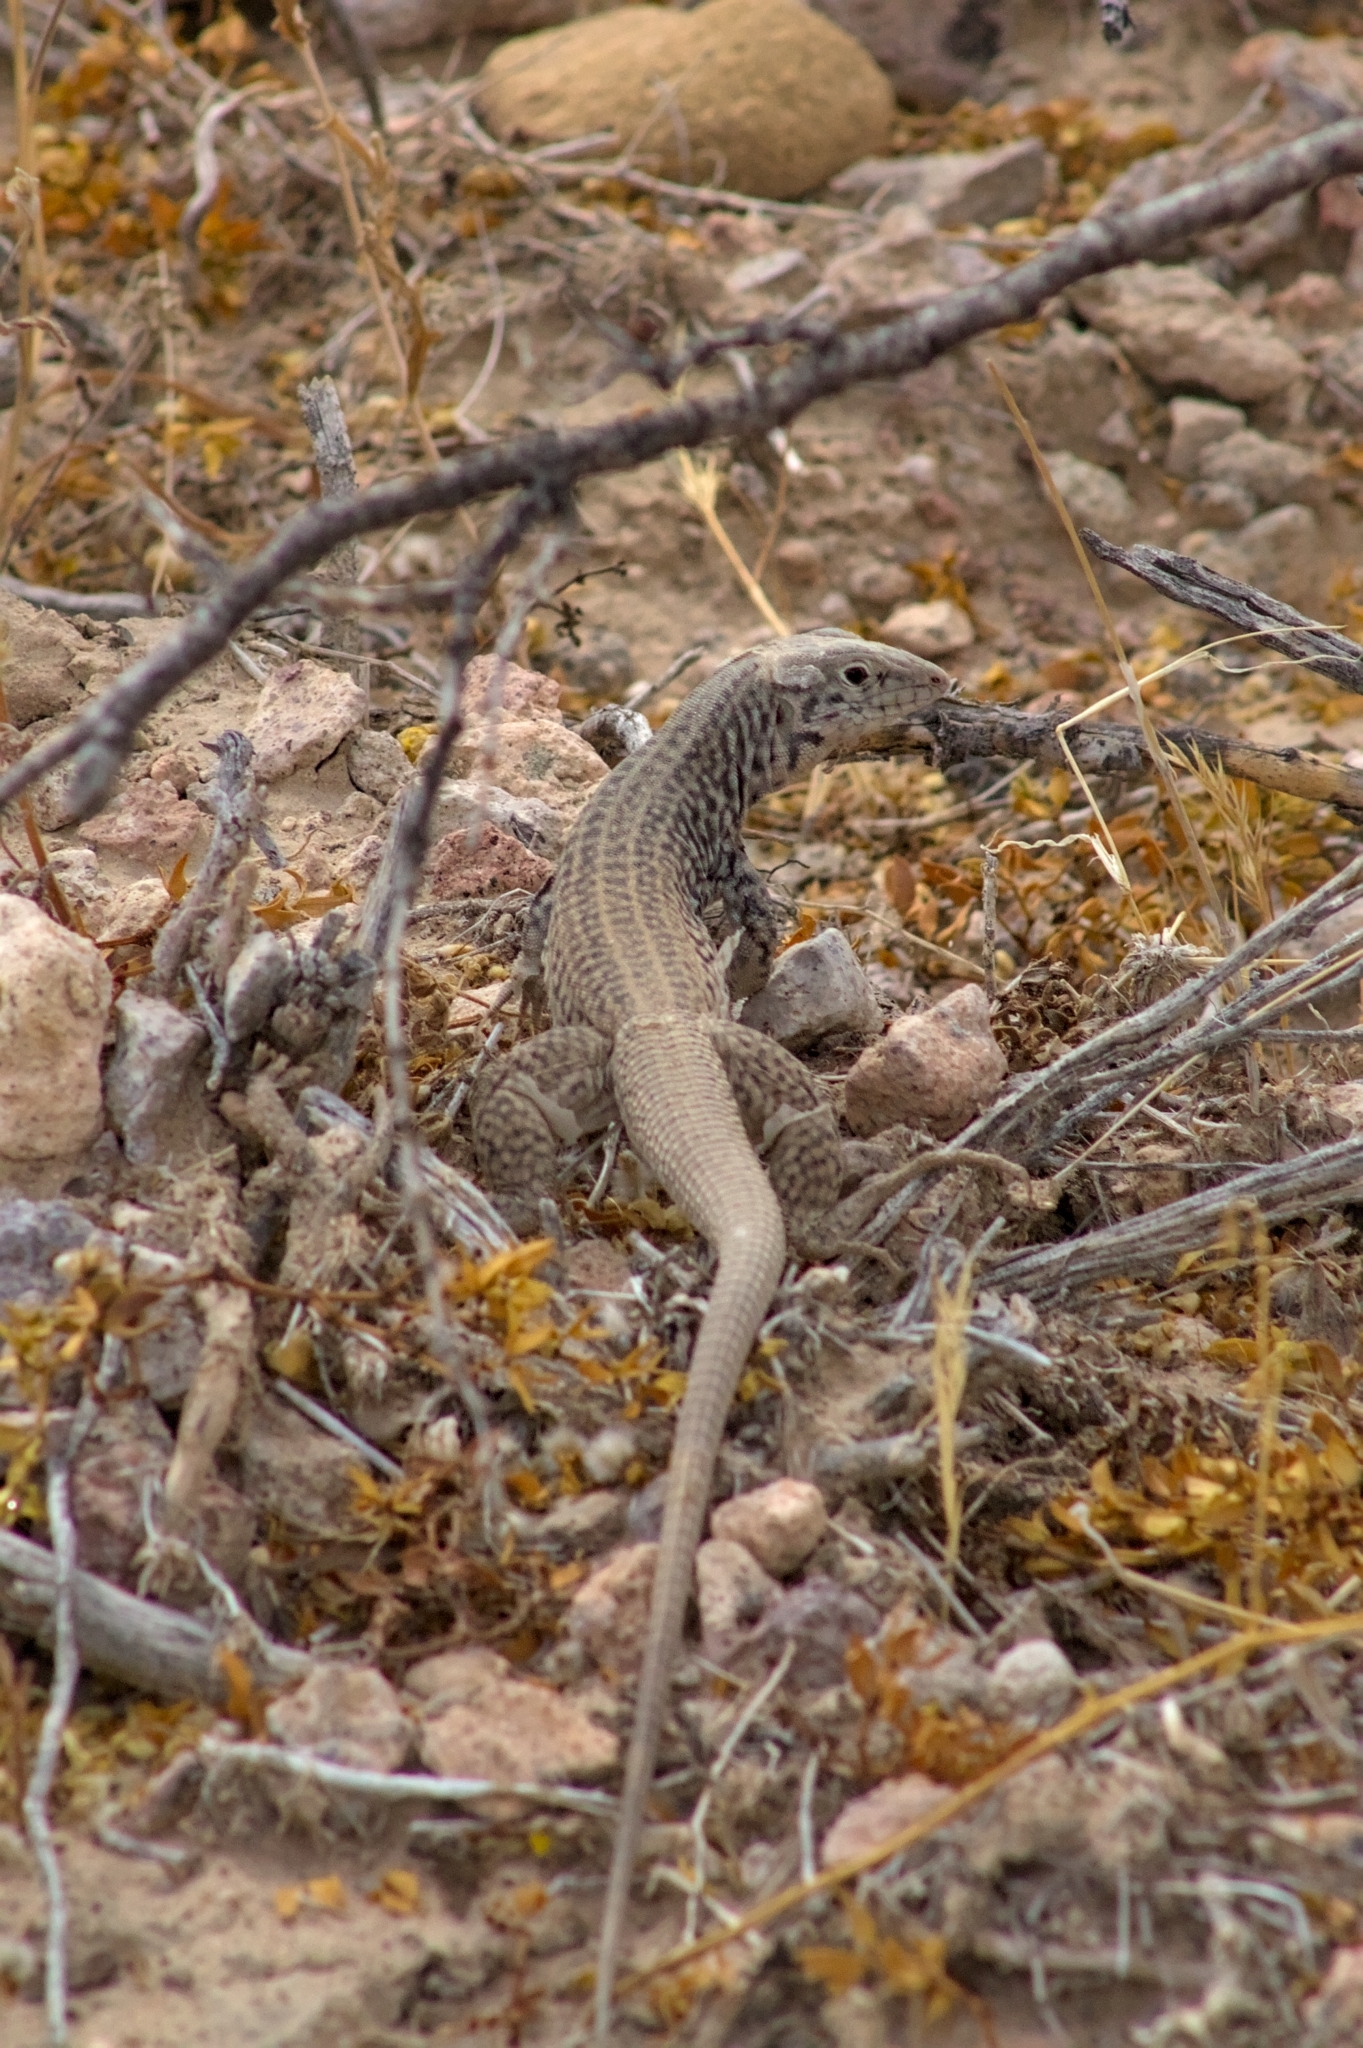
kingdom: Animalia
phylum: Chordata
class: Squamata
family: Teiidae
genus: Aspidoscelis
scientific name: Aspidoscelis tigris
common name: Tiger whiptail
